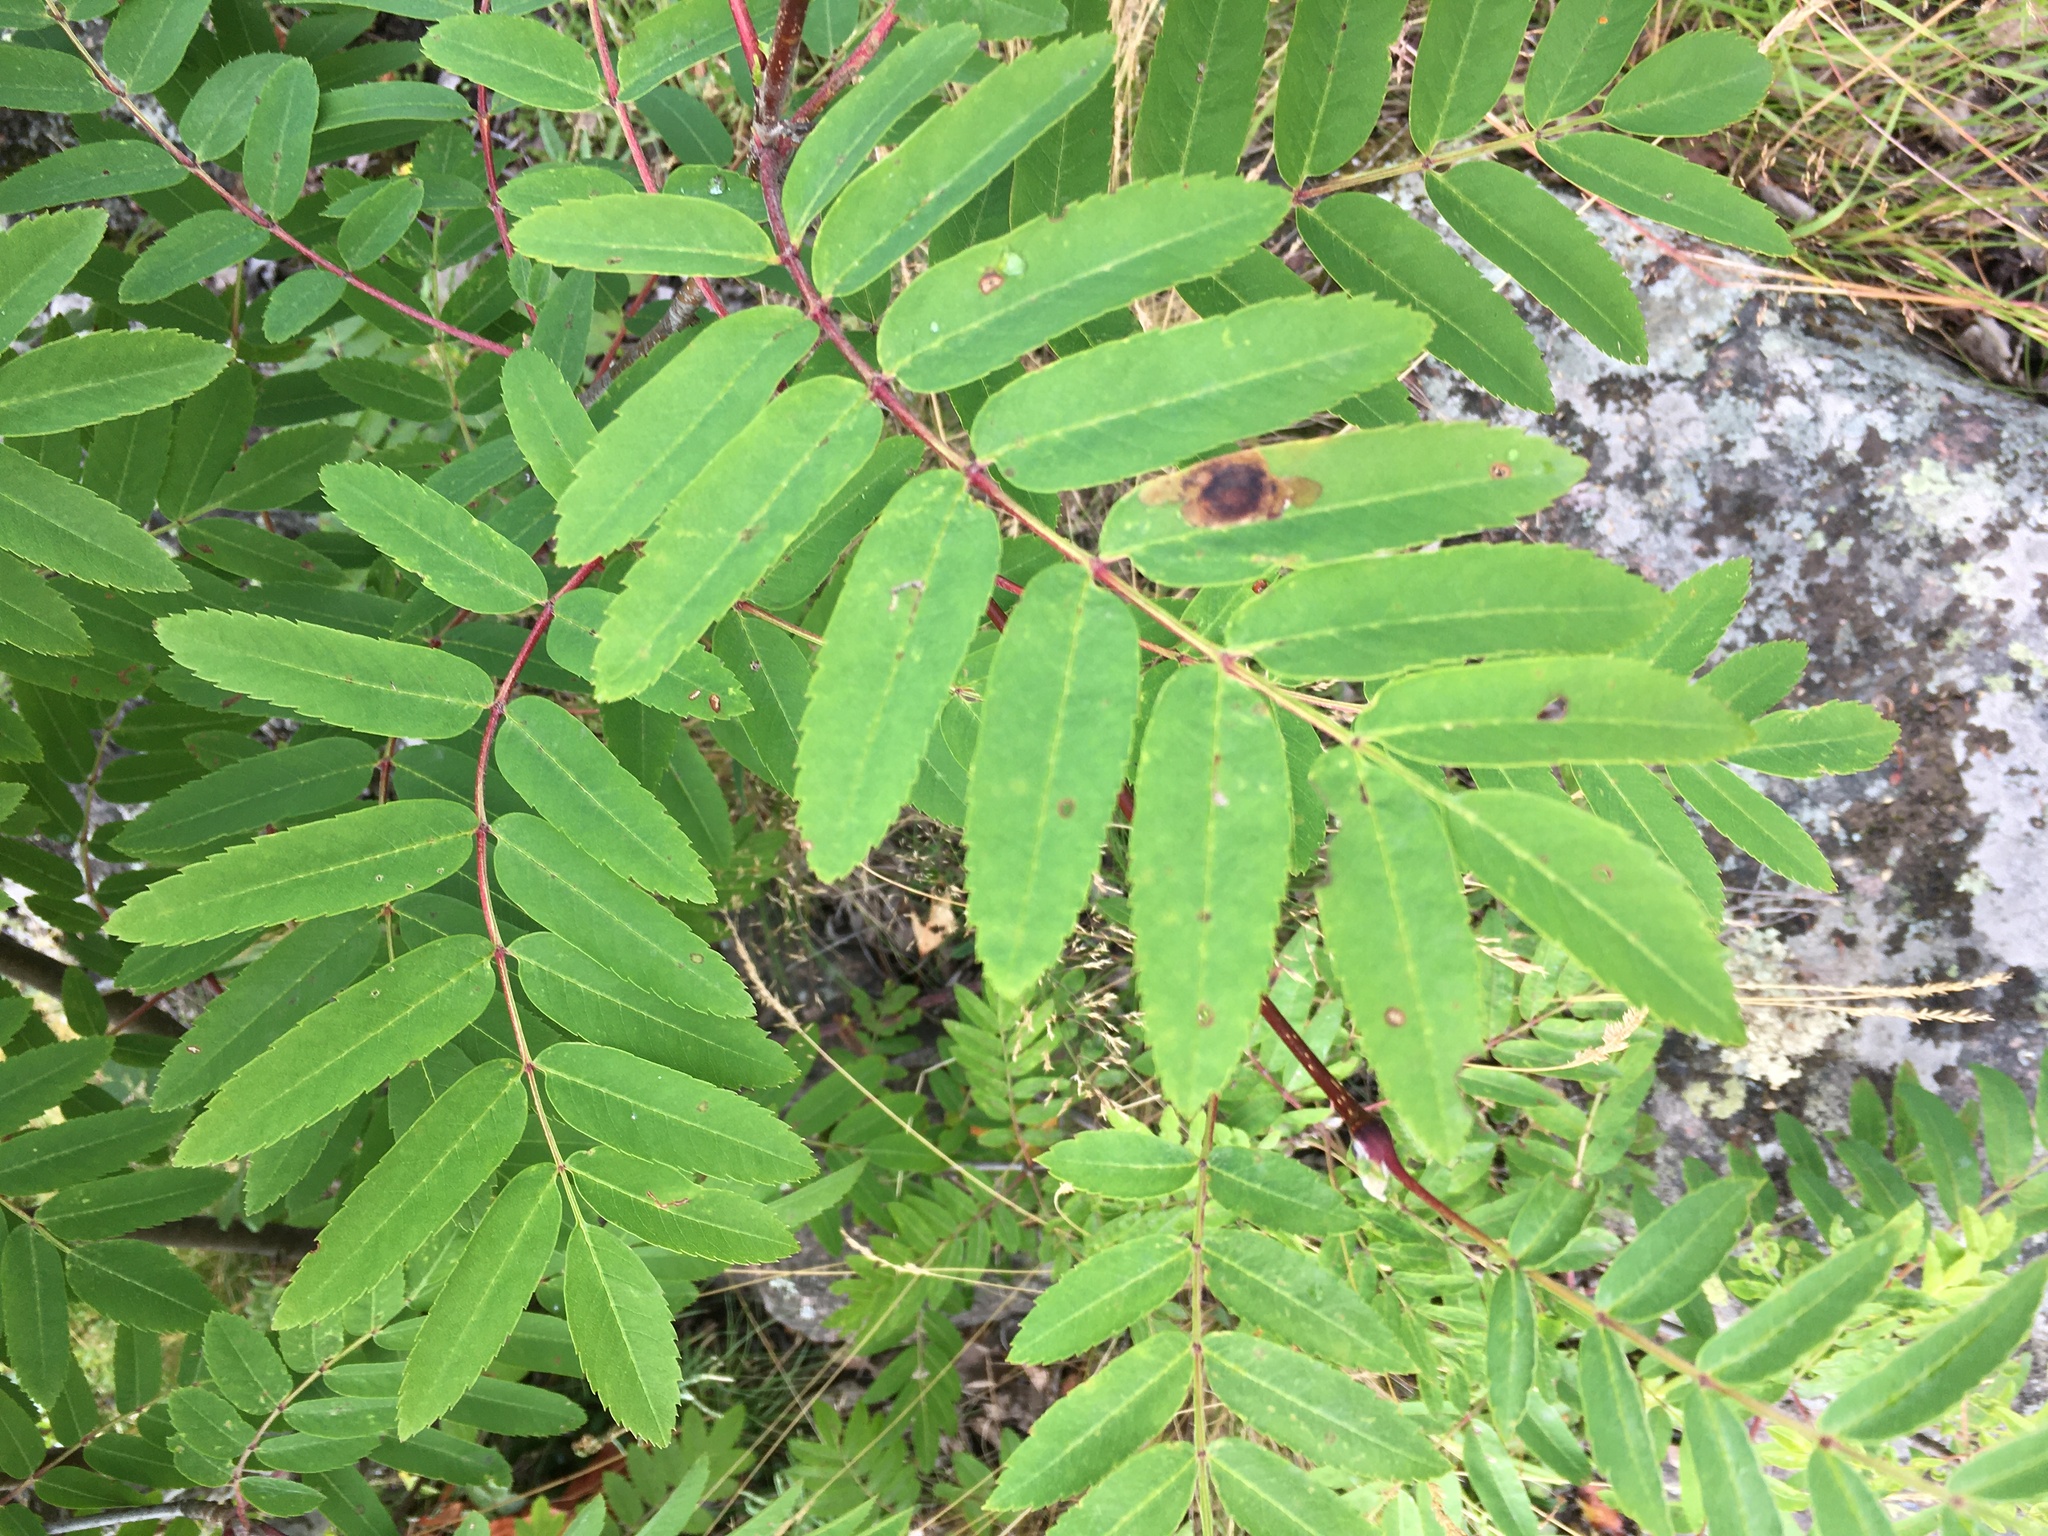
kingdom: Plantae
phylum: Tracheophyta
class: Magnoliopsida
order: Rosales
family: Rosaceae
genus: Sorbus
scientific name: Sorbus aucuparia
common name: Rowan
